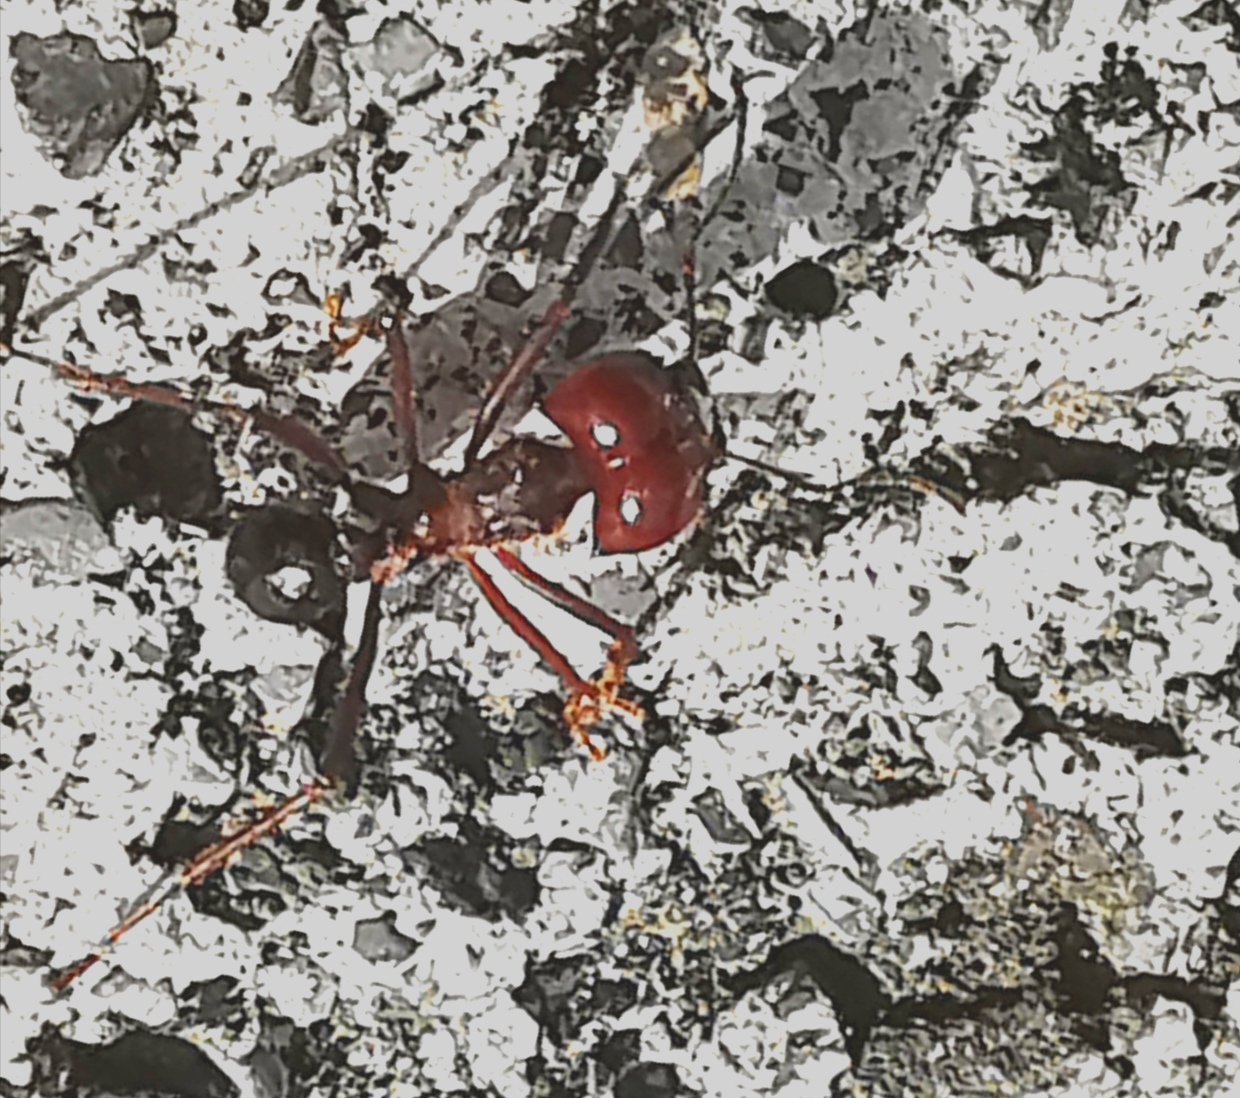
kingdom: Animalia
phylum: Arthropoda
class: Insecta
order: Hymenoptera
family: Formicidae
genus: Atta
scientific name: Atta mexicana
